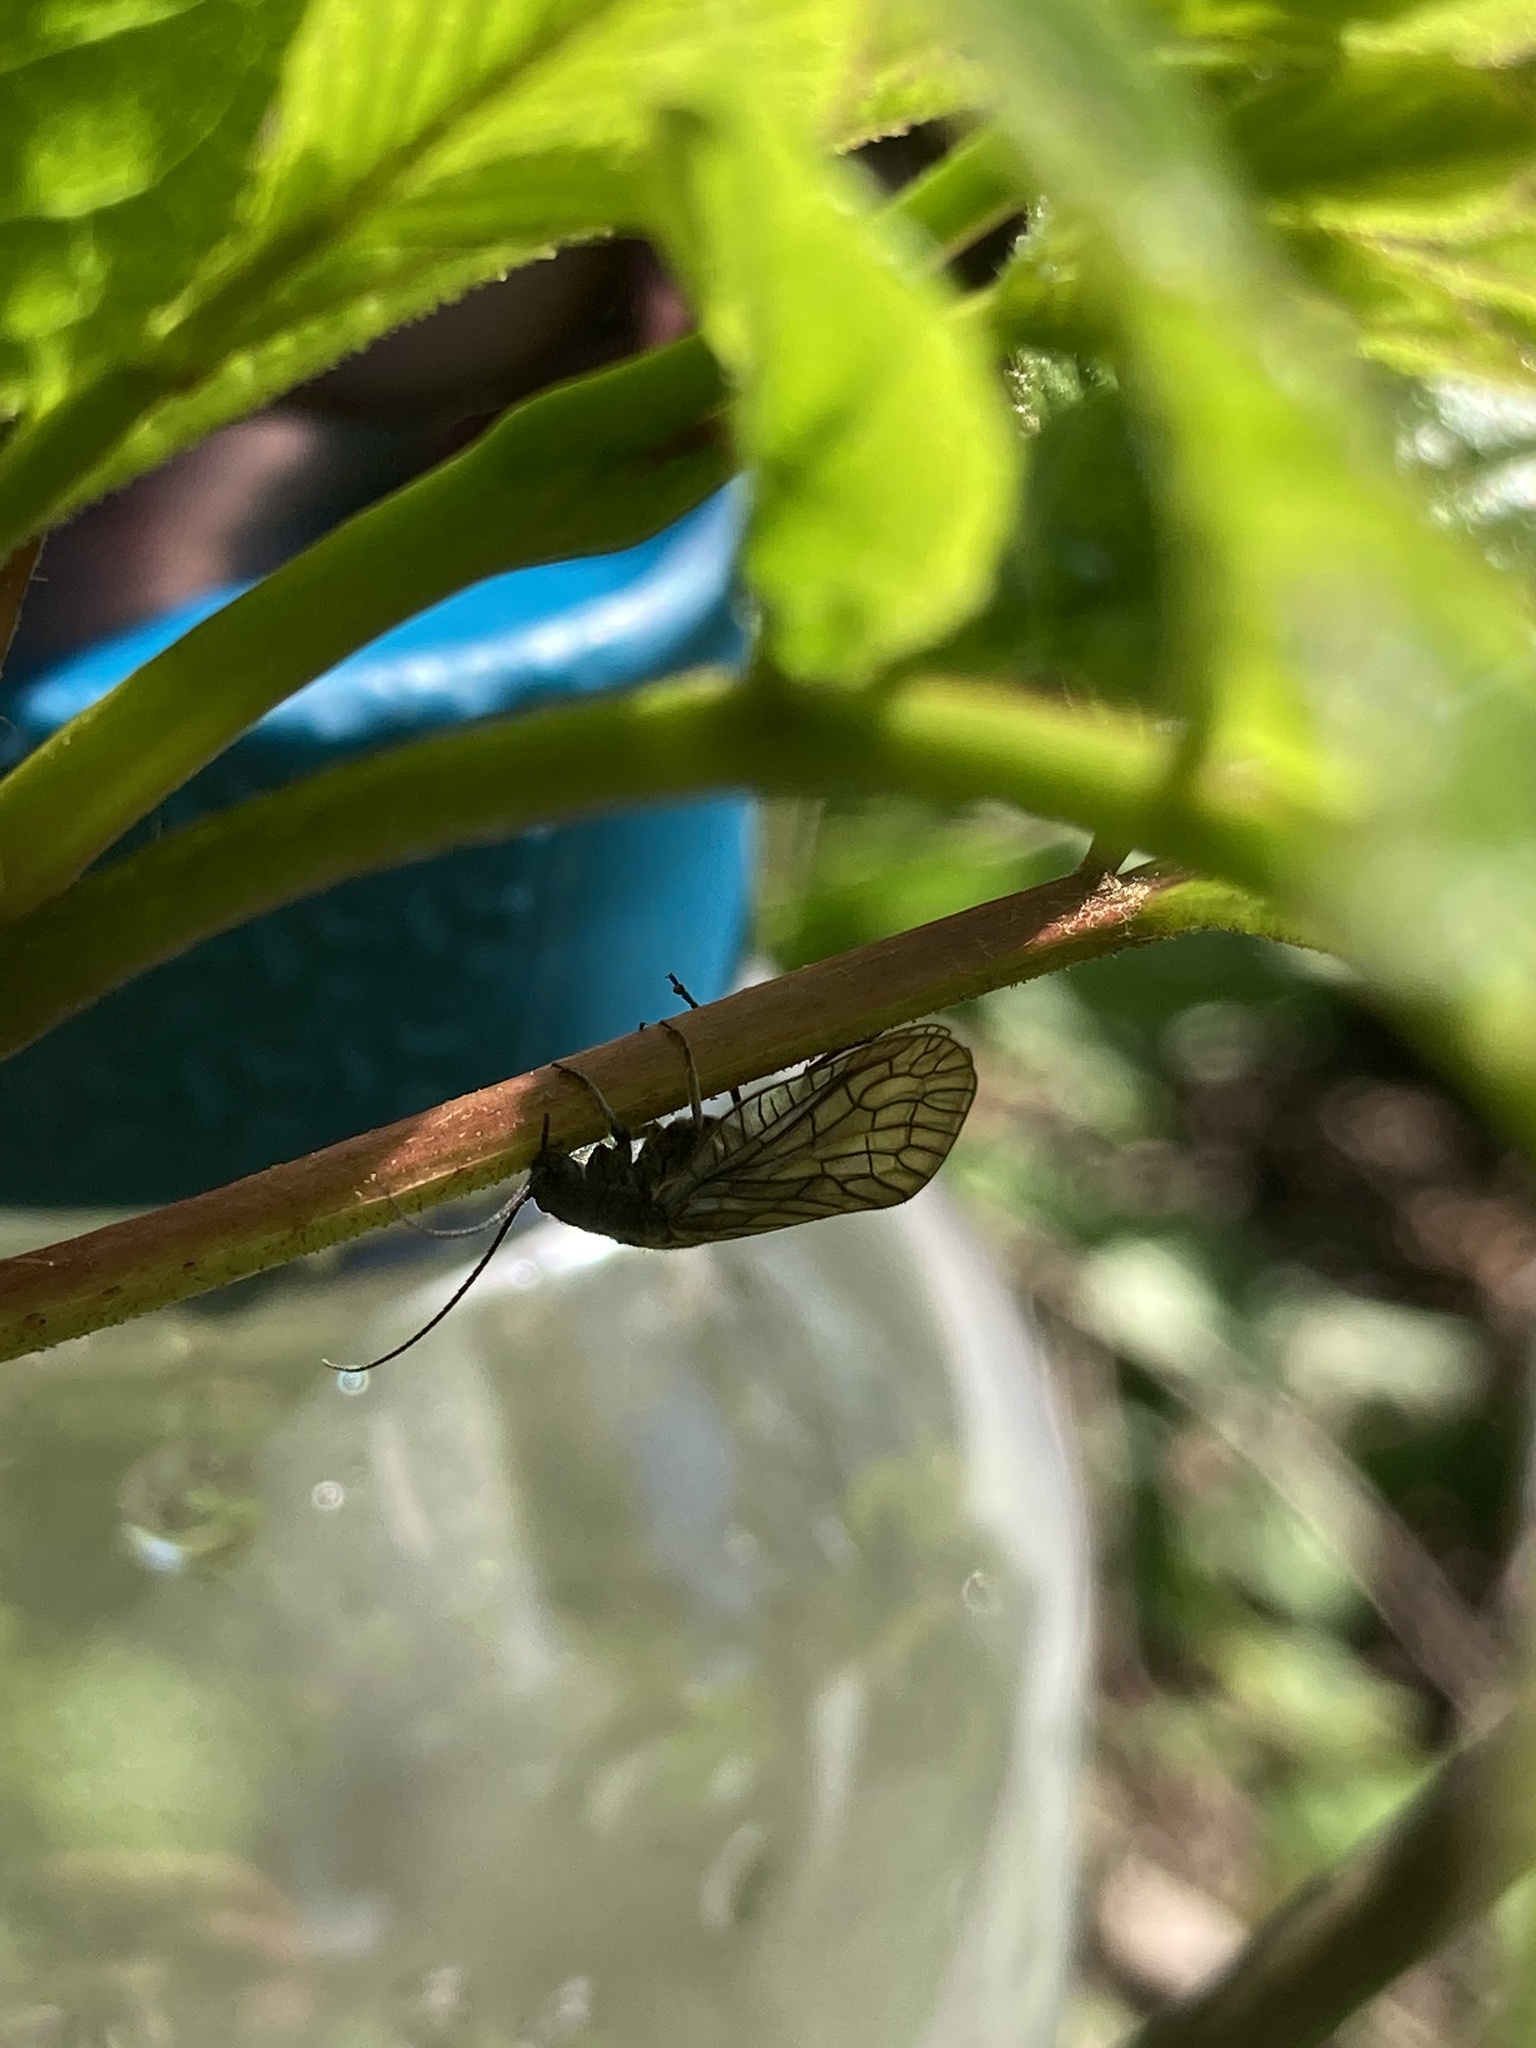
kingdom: Animalia
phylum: Arthropoda
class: Insecta
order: Megaloptera
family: Sialidae
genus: Sialis
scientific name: Sialis
